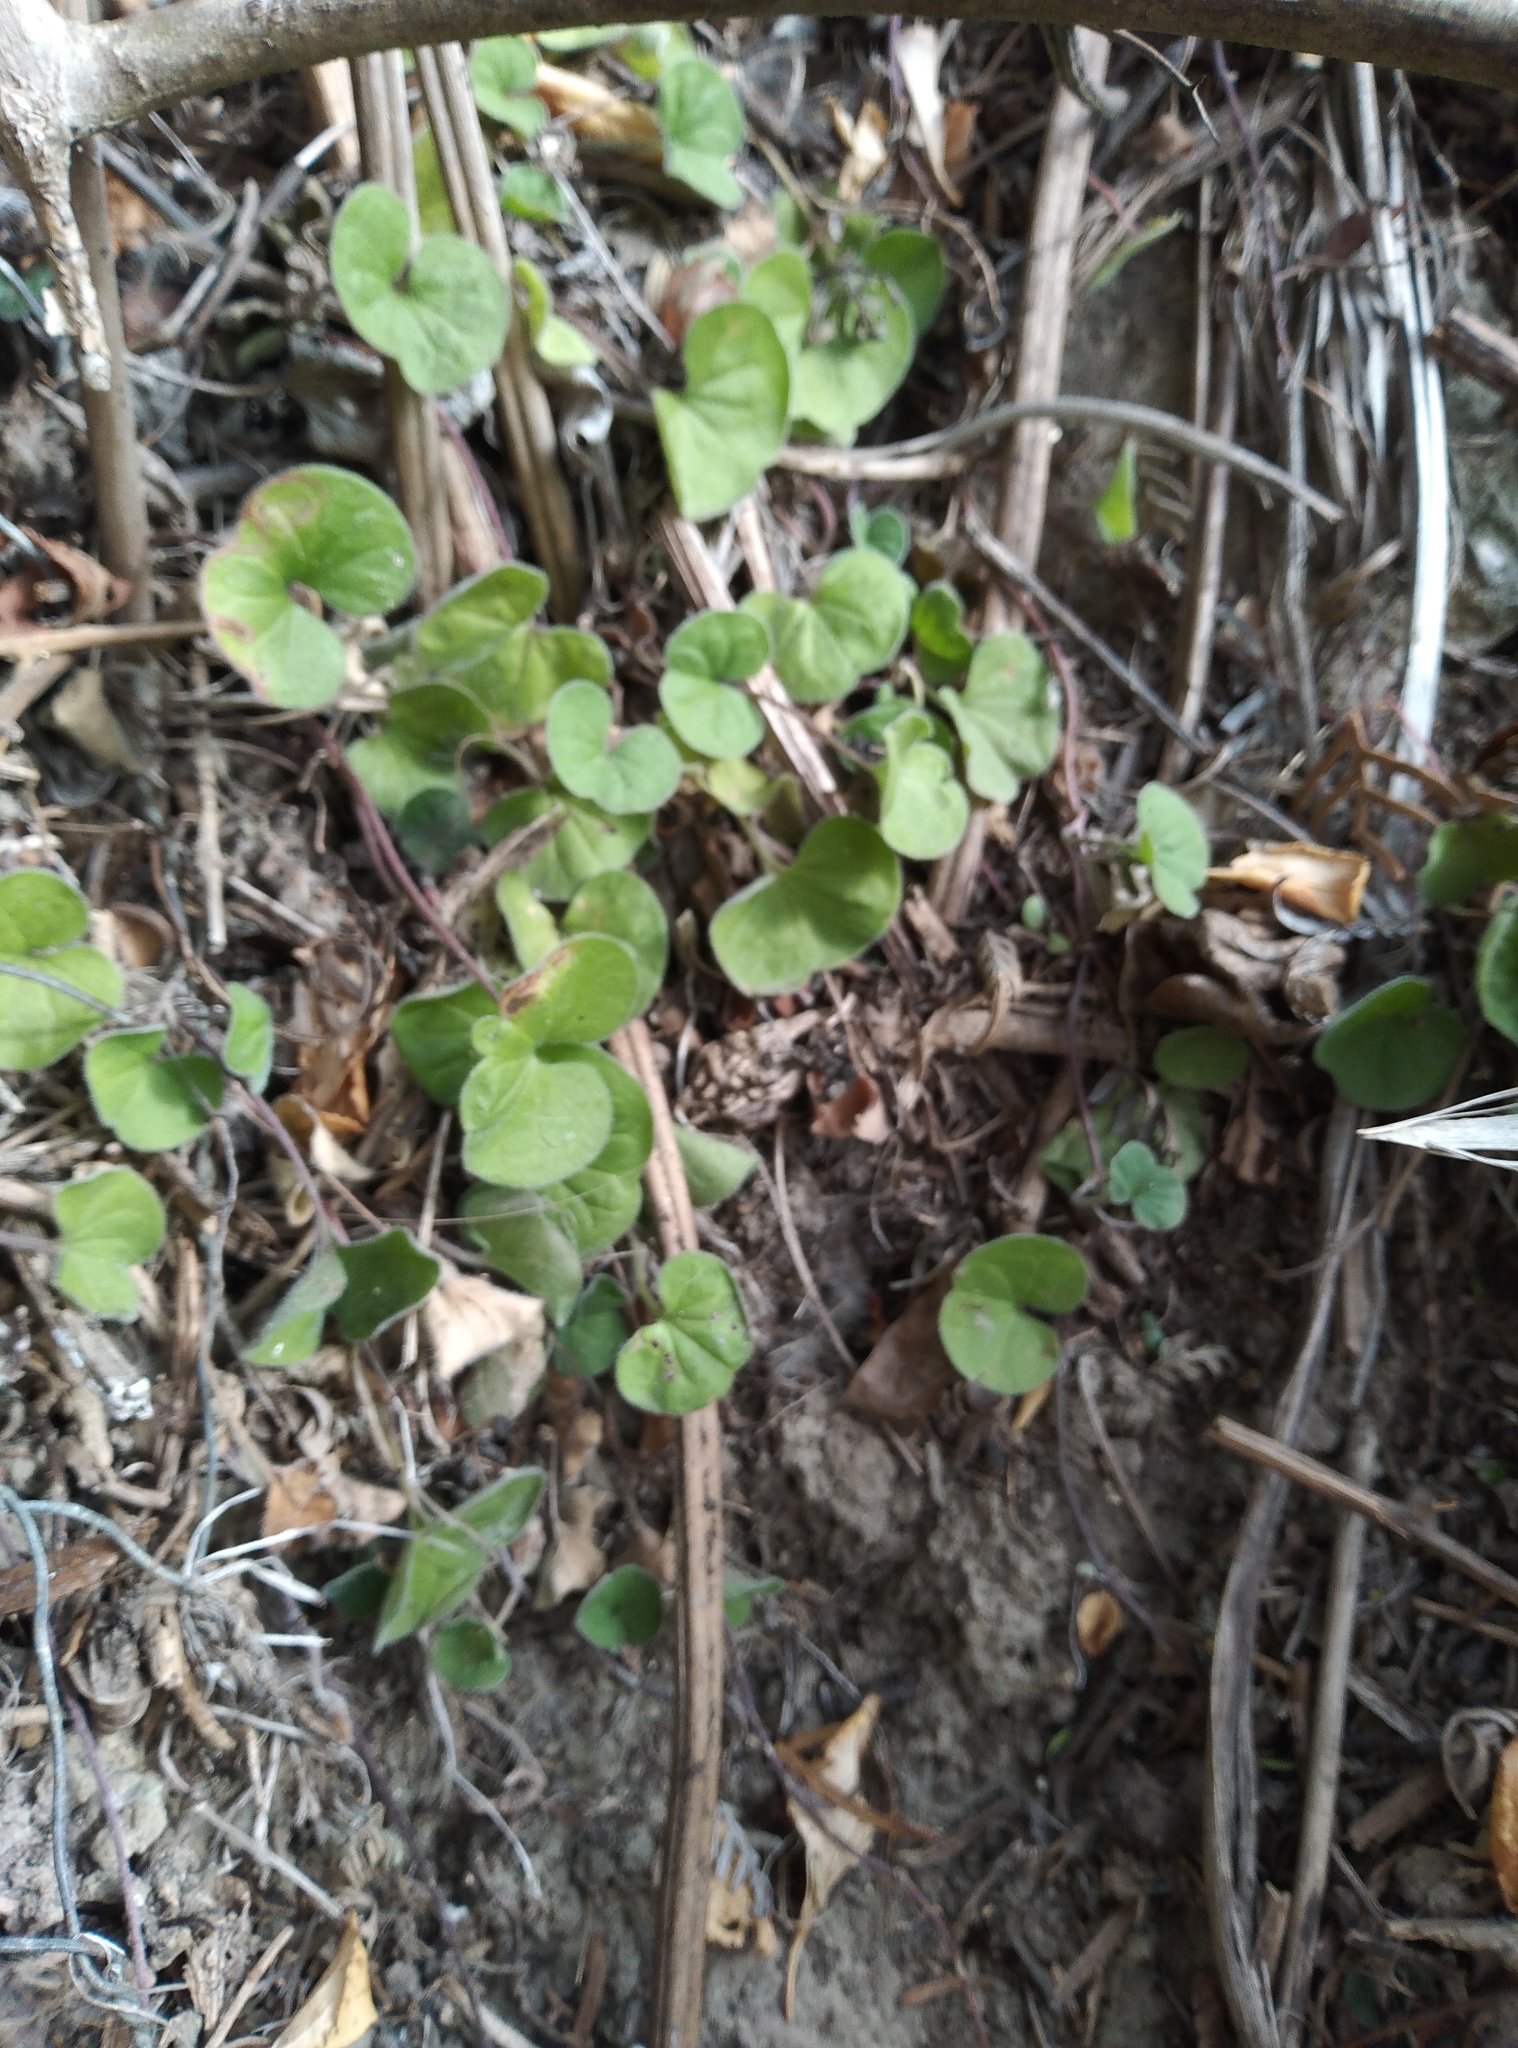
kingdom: Plantae
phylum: Tracheophyta
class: Magnoliopsida
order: Solanales
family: Convolvulaceae
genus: Dichondra
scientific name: Dichondra repens
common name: Kidneyweed
